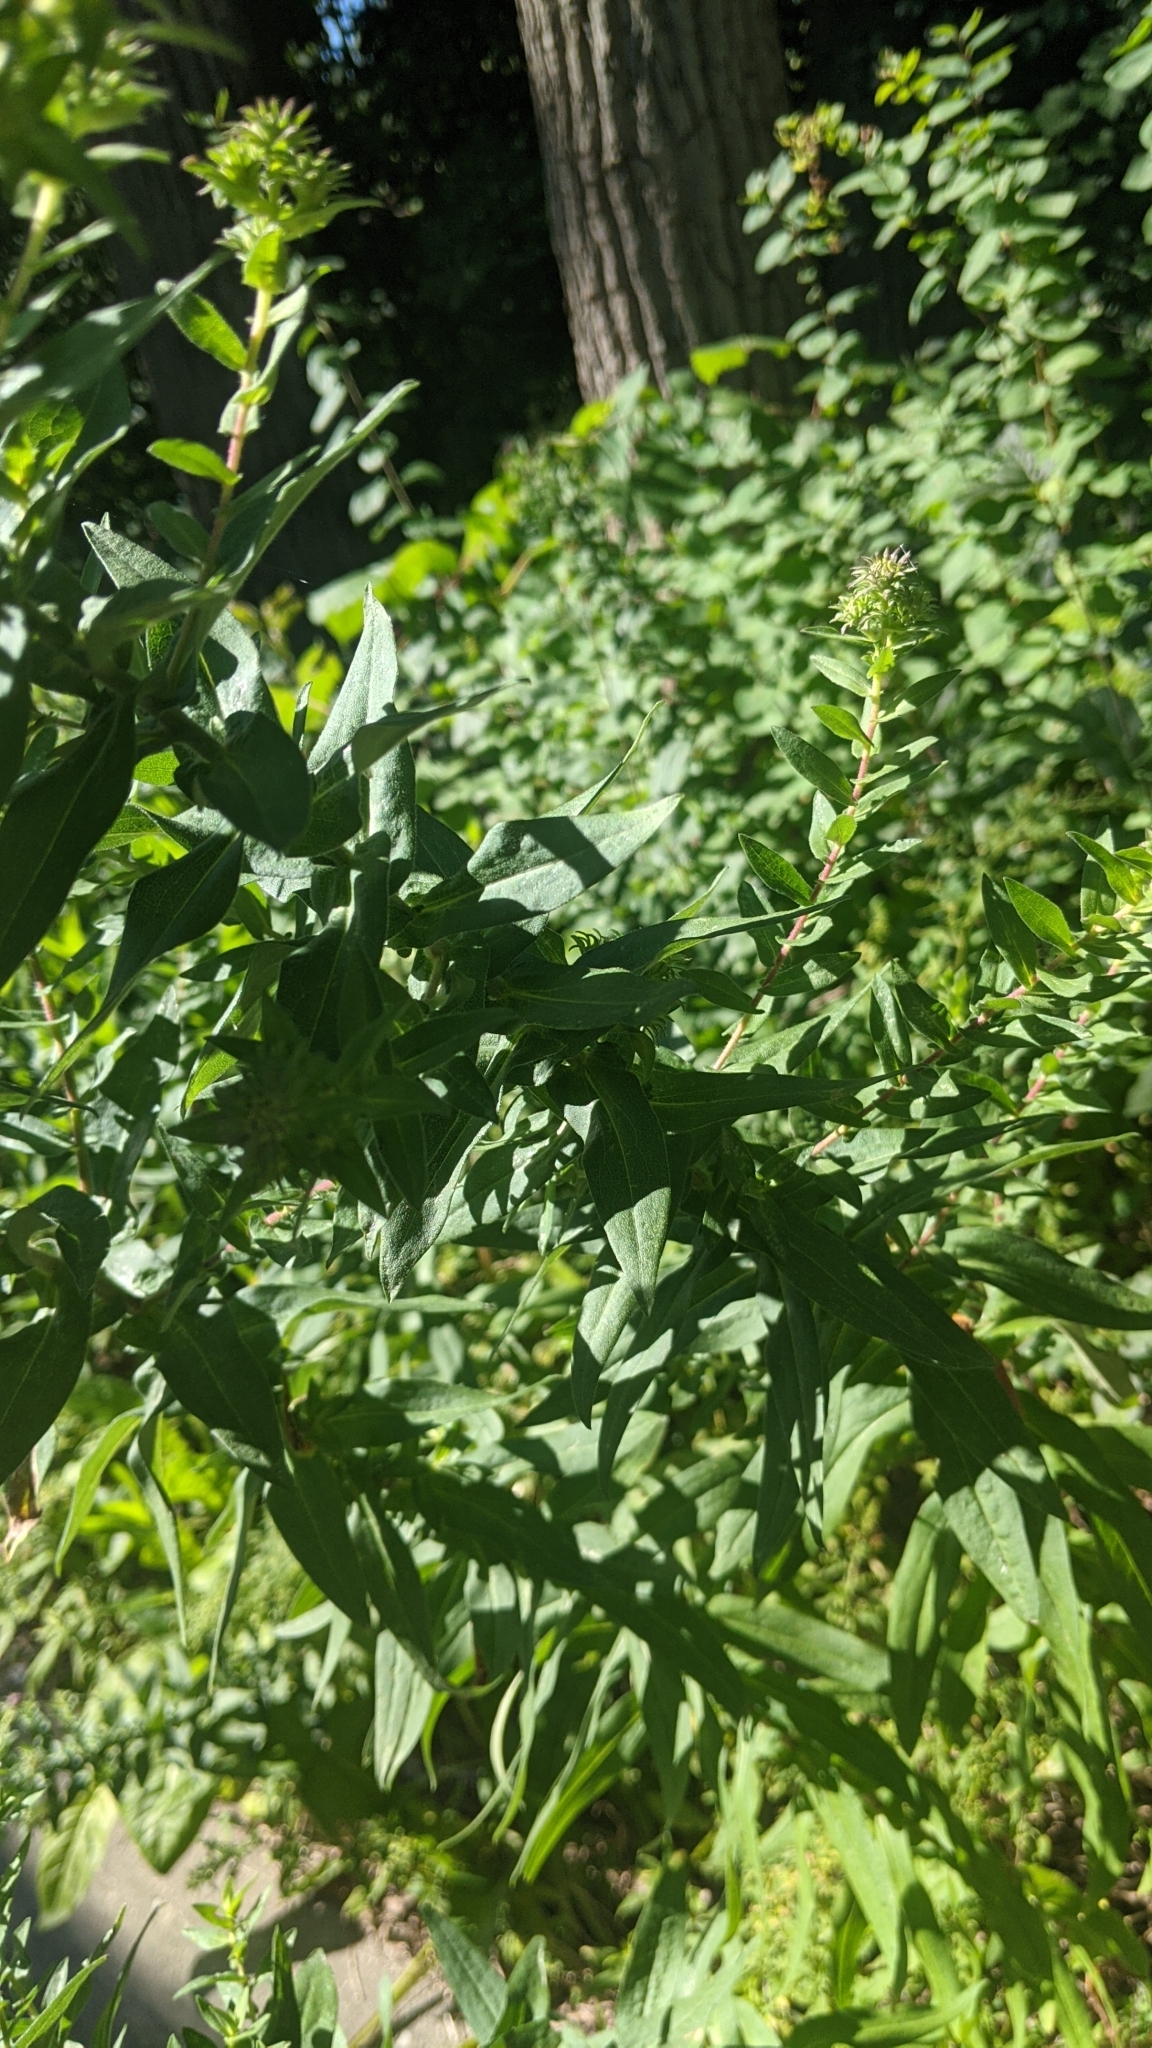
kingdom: Plantae
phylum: Tracheophyta
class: Magnoliopsida
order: Asterales
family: Asteraceae
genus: Symphyotrichum
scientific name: Symphyotrichum novae-angliae
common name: Michaelmas daisy
